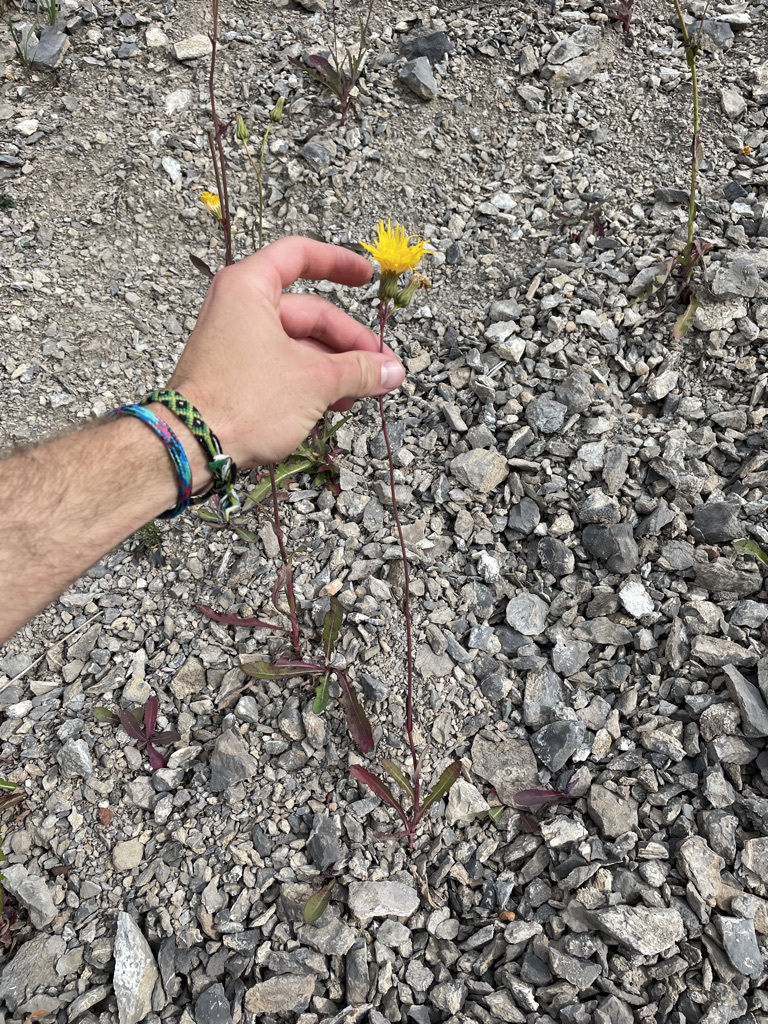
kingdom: Plantae
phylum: Tracheophyta
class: Magnoliopsida
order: Asterales
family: Asteraceae
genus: Sonchus
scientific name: Sonchus arvensis
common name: Perennial sow-thistle
